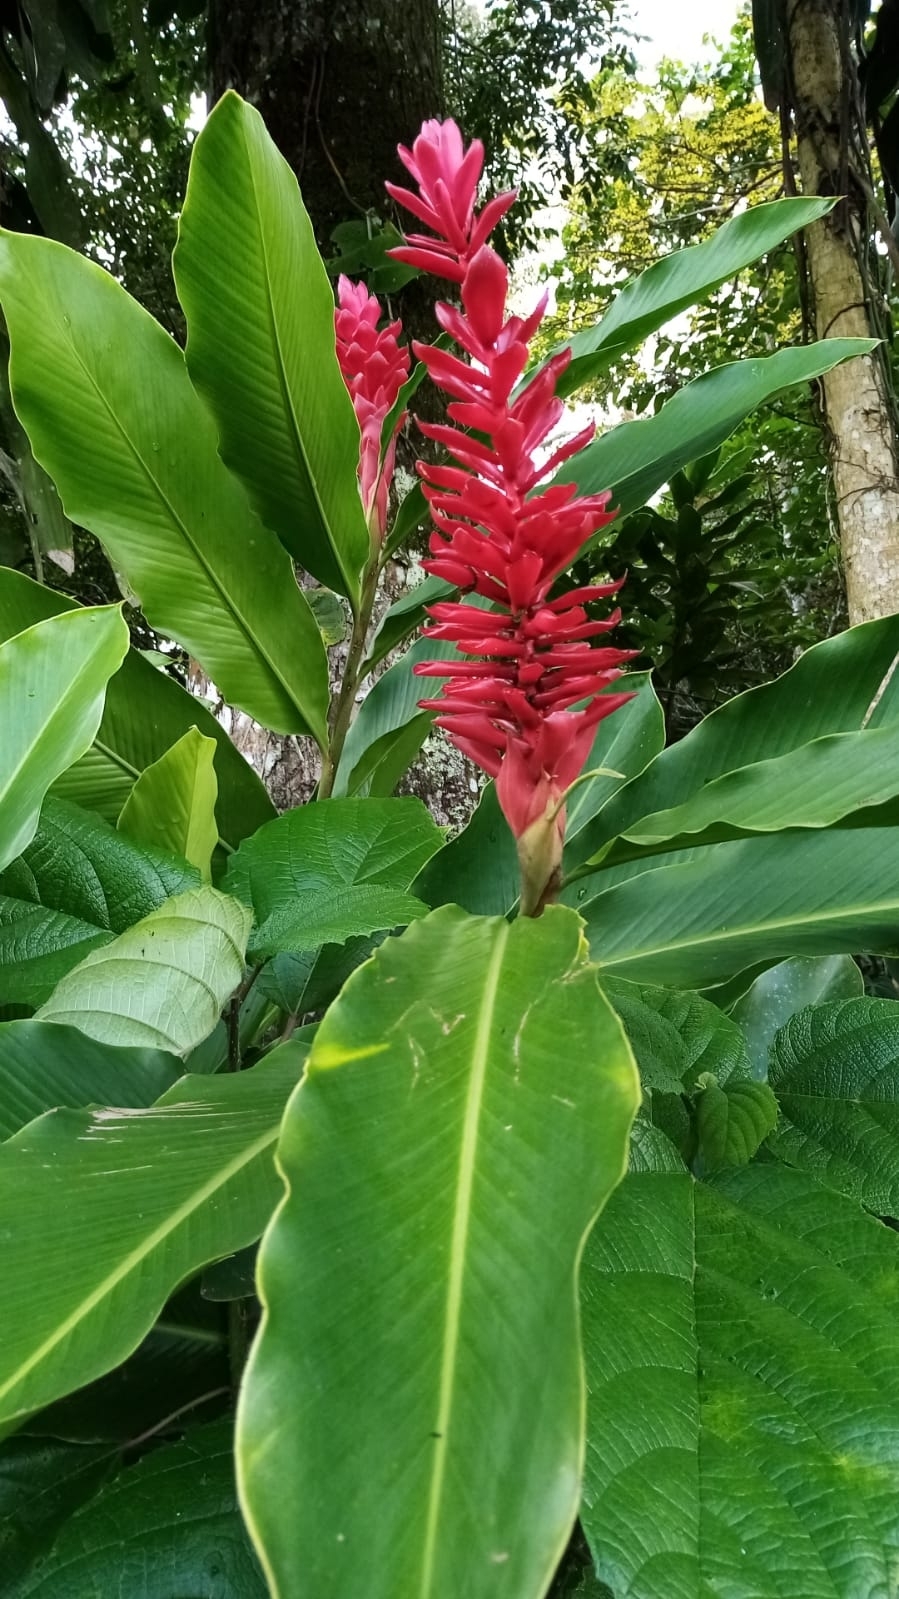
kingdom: Plantae
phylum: Tracheophyta
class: Liliopsida
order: Zingiberales
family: Zingiberaceae
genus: Alpinia
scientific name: Alpinia purpurata
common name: Red ginger
